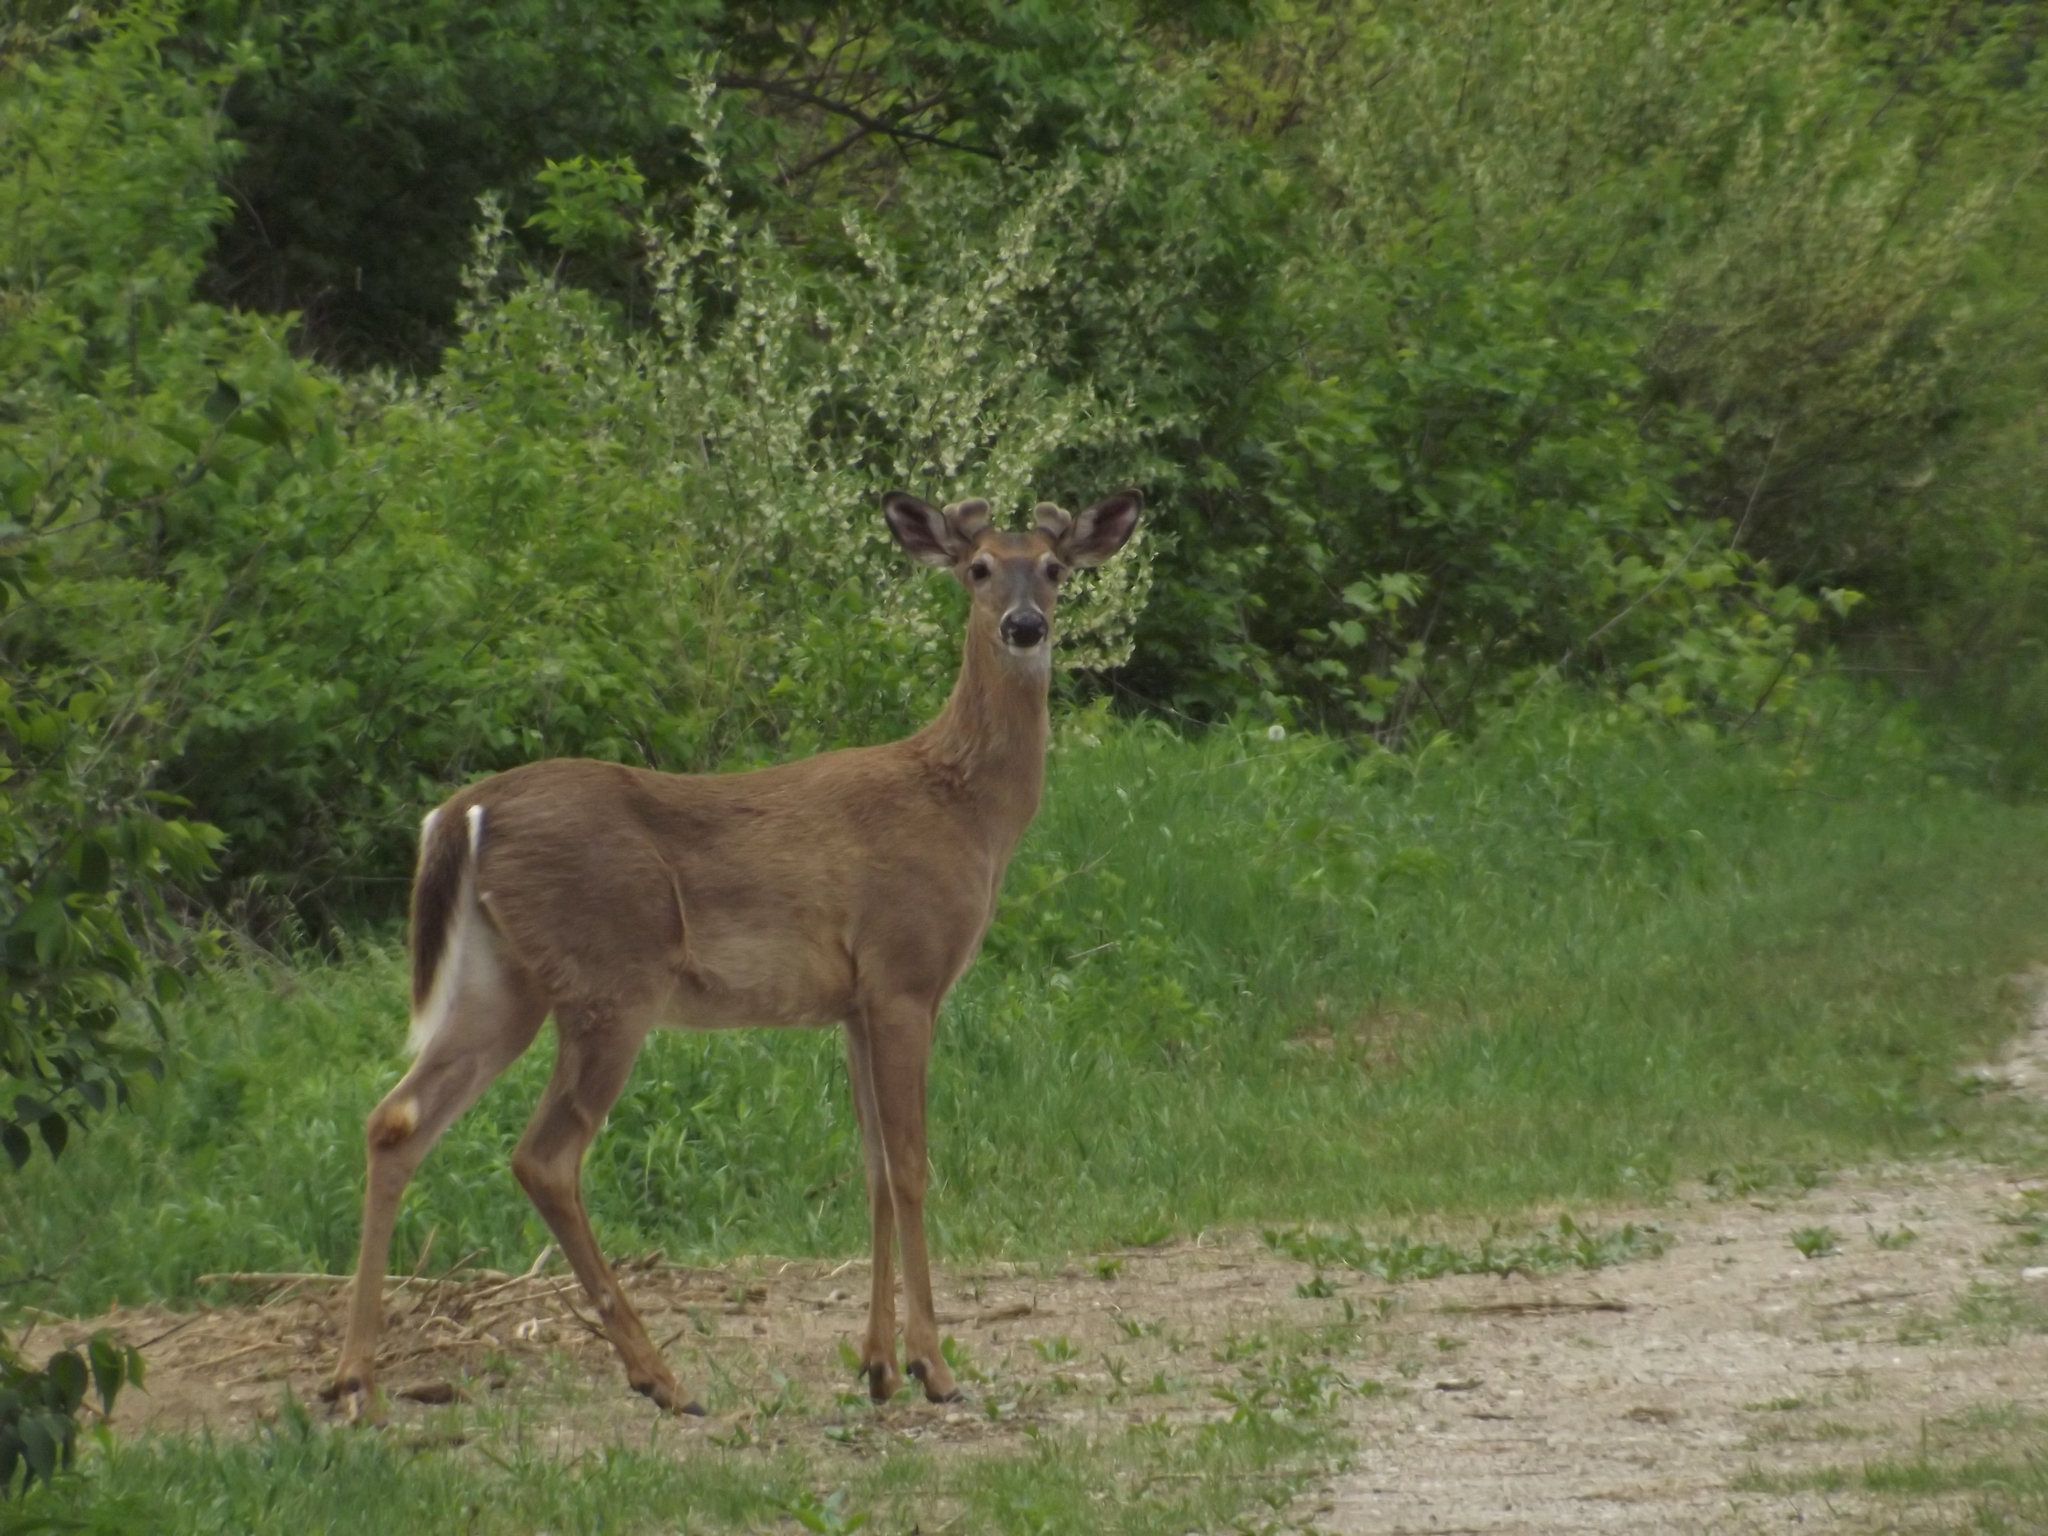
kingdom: Animalia
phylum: Chordata
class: Mammalia
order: Artiodactyla
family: Cervidae
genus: Odocoileus
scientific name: Odocoileus virginianus
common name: White-tailed deer
